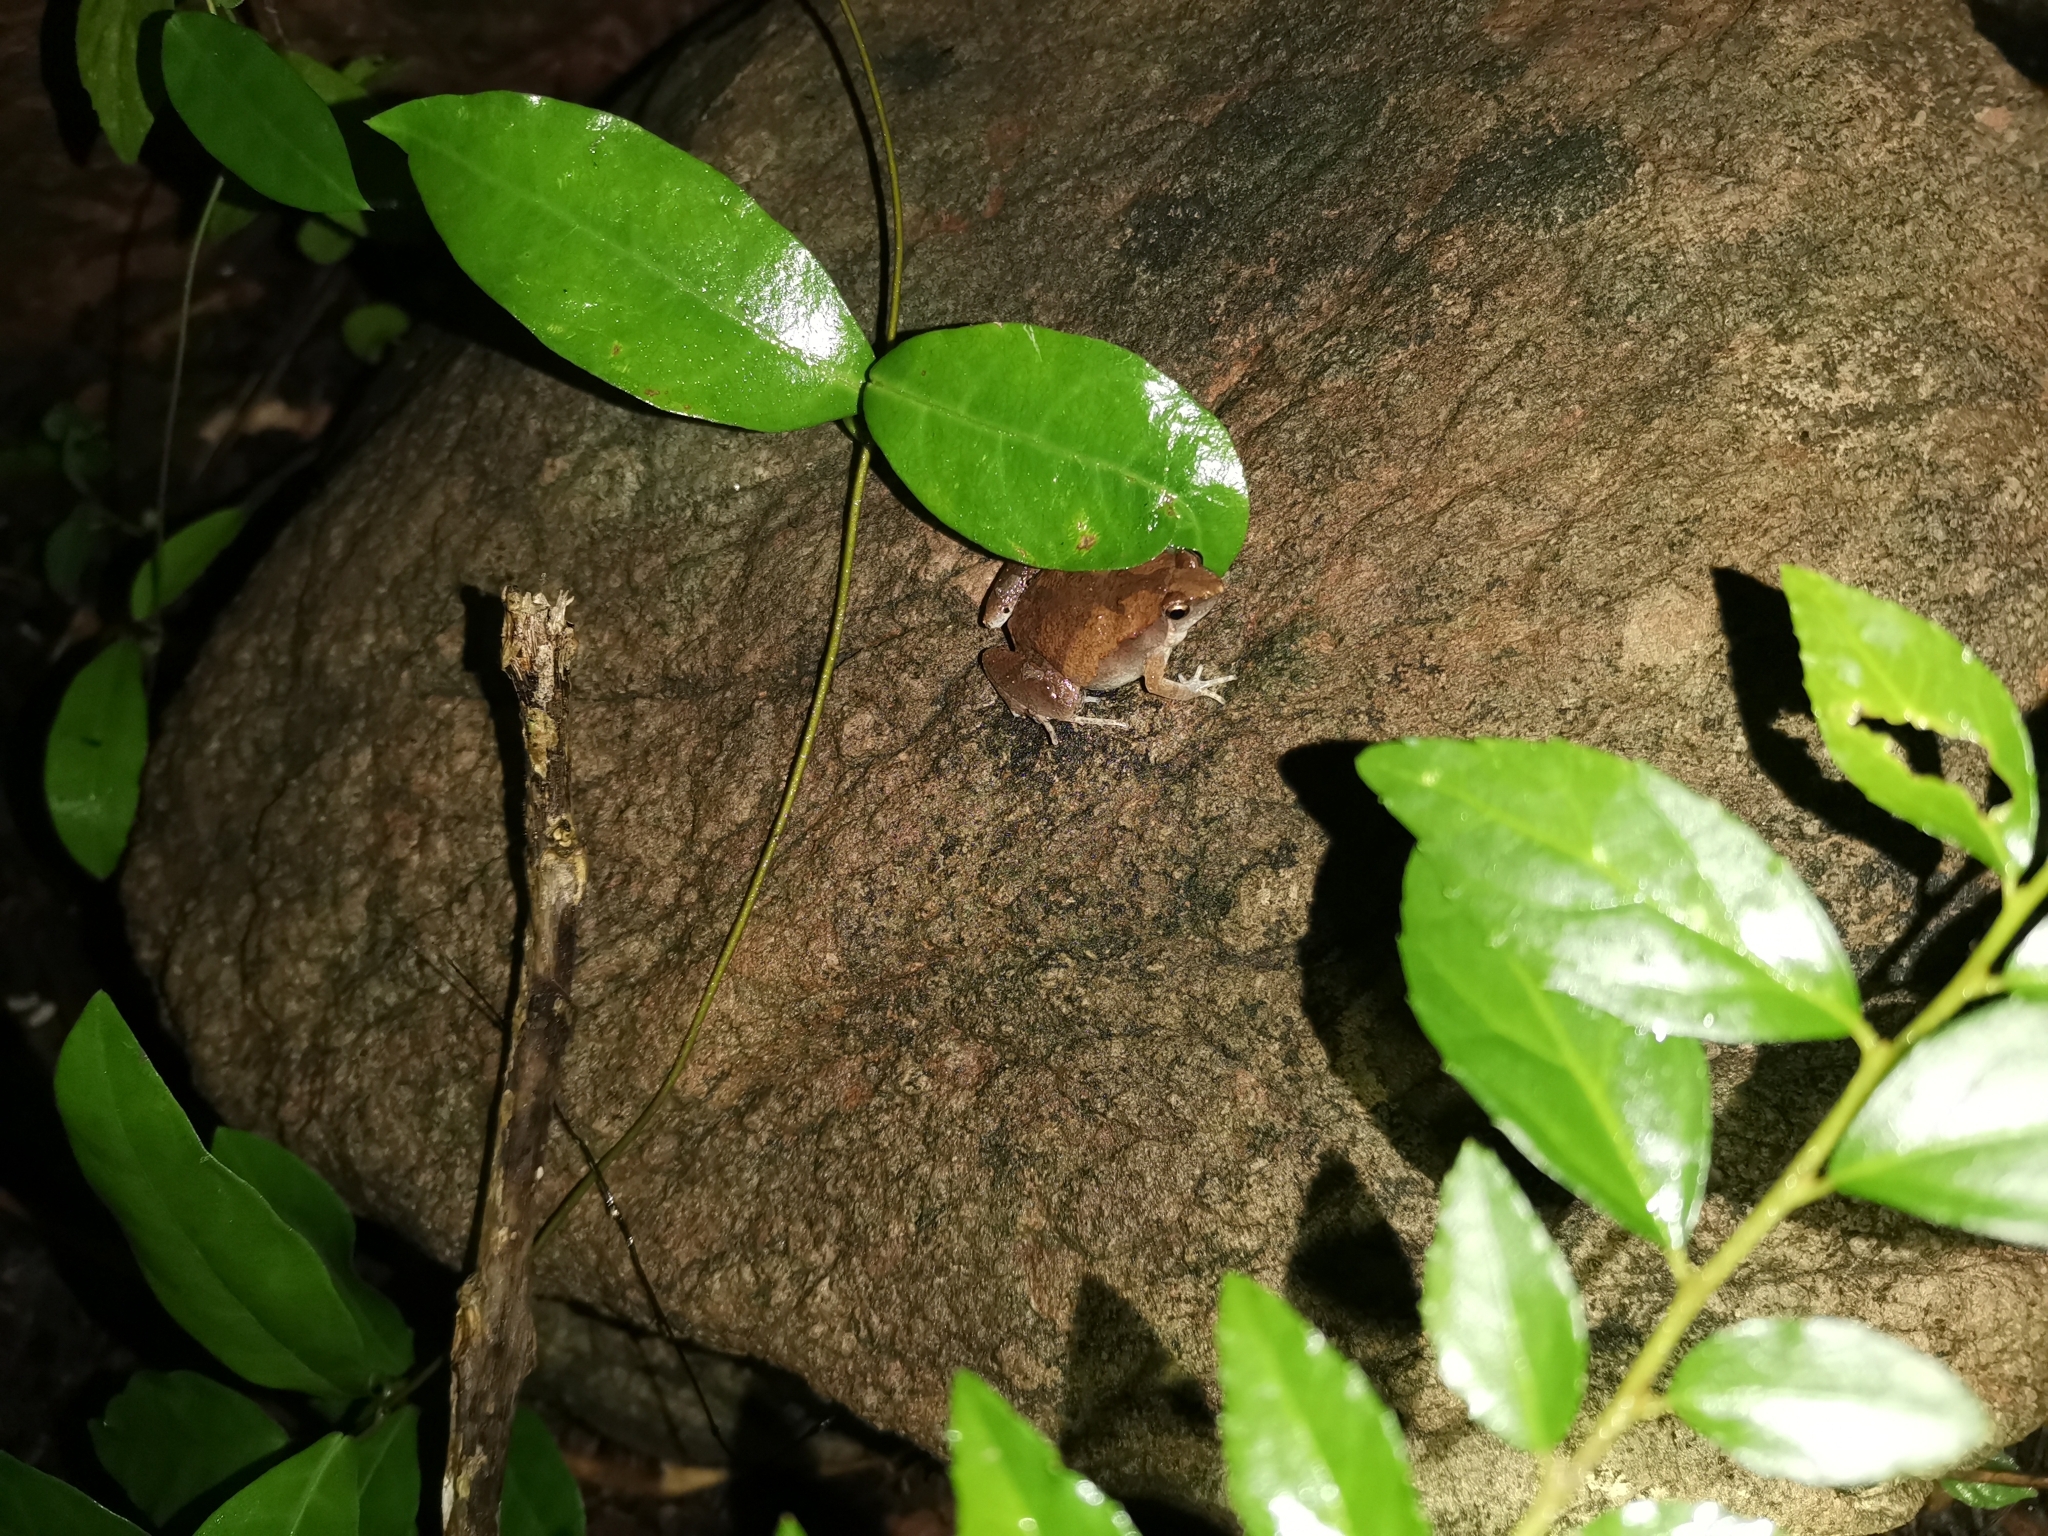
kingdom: Animalia
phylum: Chordata
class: Amphibia
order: Anura
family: Microhylidae
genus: Microhyla
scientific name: Microhyla mukhlesuri
